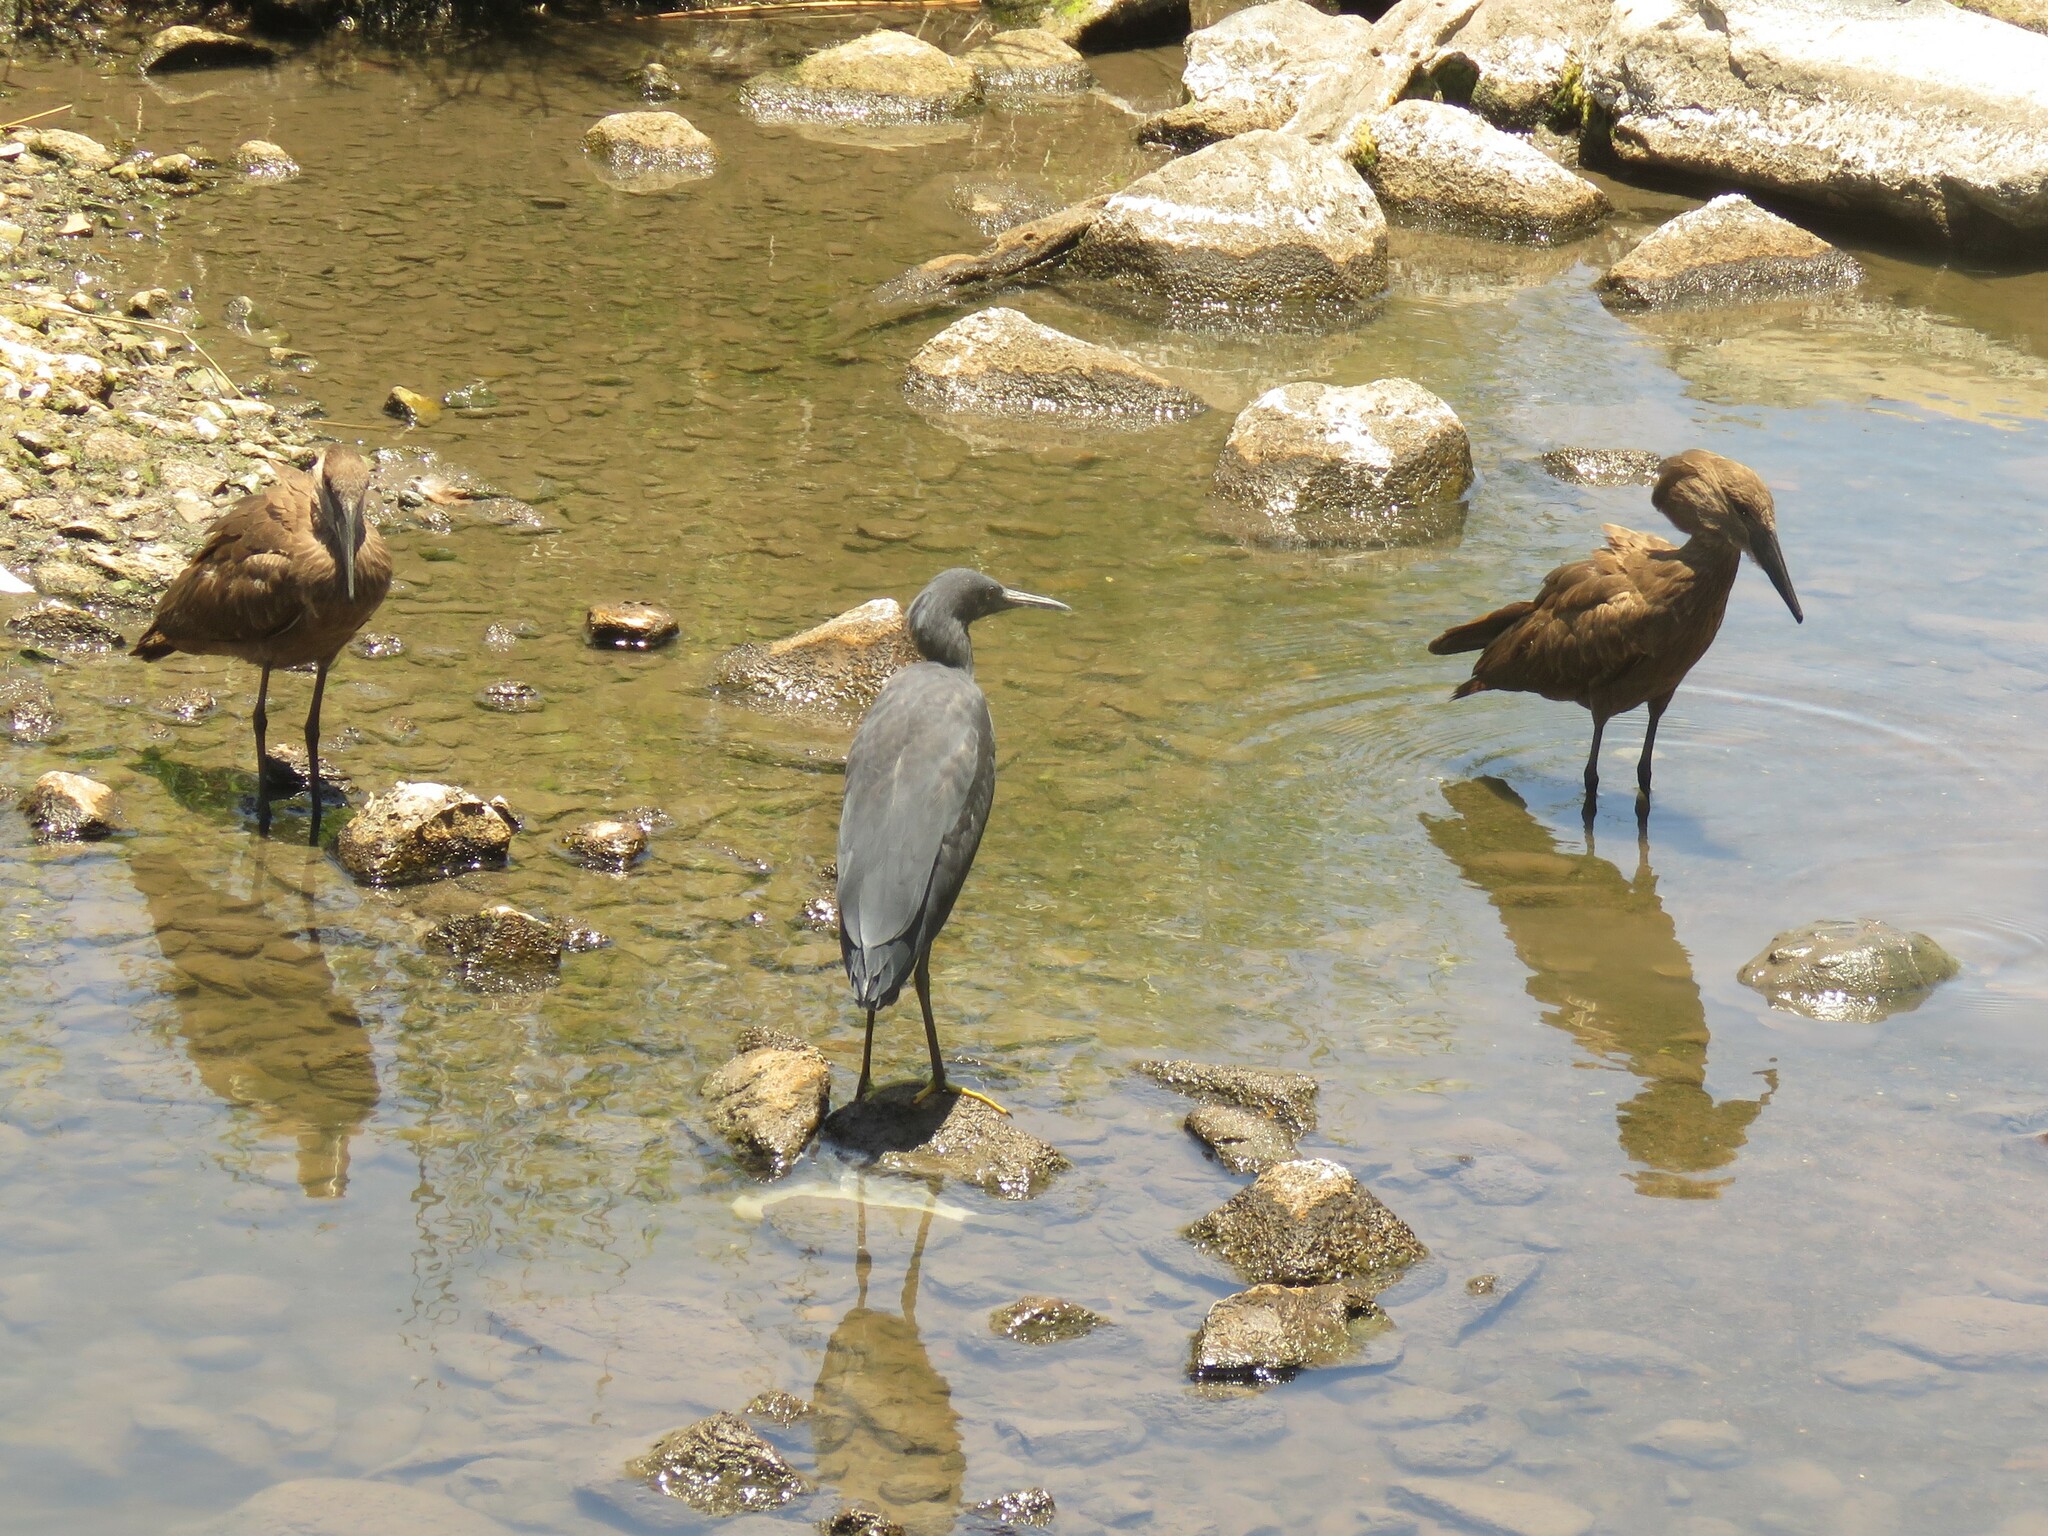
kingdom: Animalia
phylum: Chordata
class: Aves
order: Pelecaniformes
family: Scopidae
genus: Scopus
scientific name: Scopus umbretta
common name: Hamerkop
